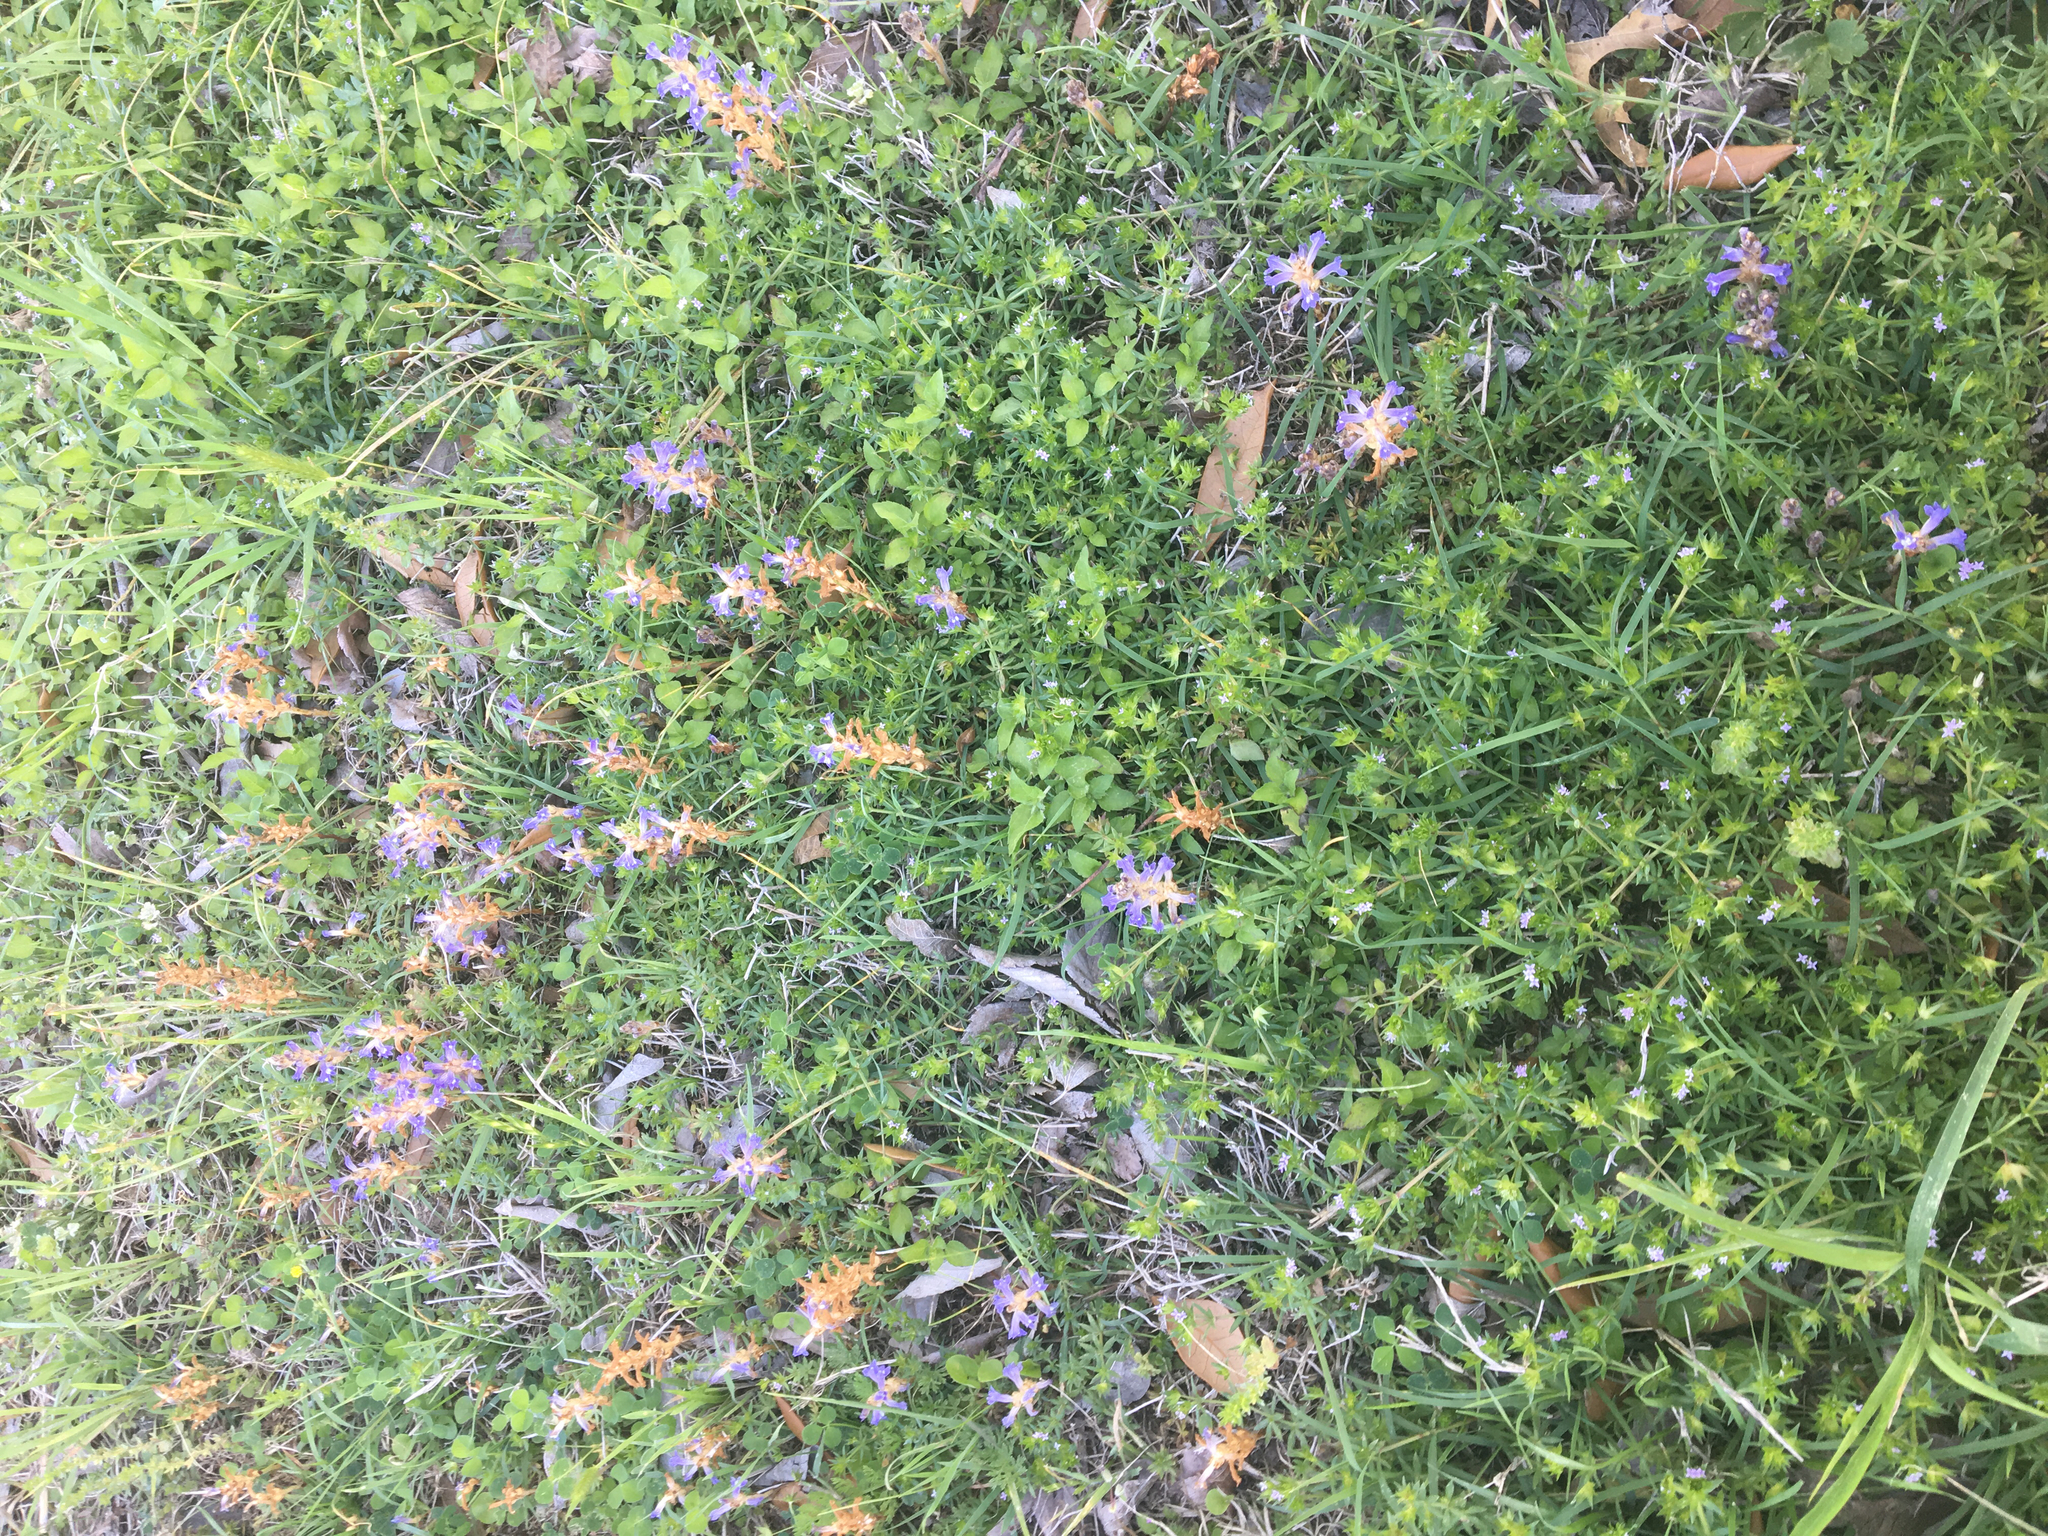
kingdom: Plantae
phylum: Tracheophyta
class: Magnoliopsida
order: Lamiales
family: Orobanchaceae
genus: Phelipanche
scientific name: Phelipanche ramosa
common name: Branched broomrape
